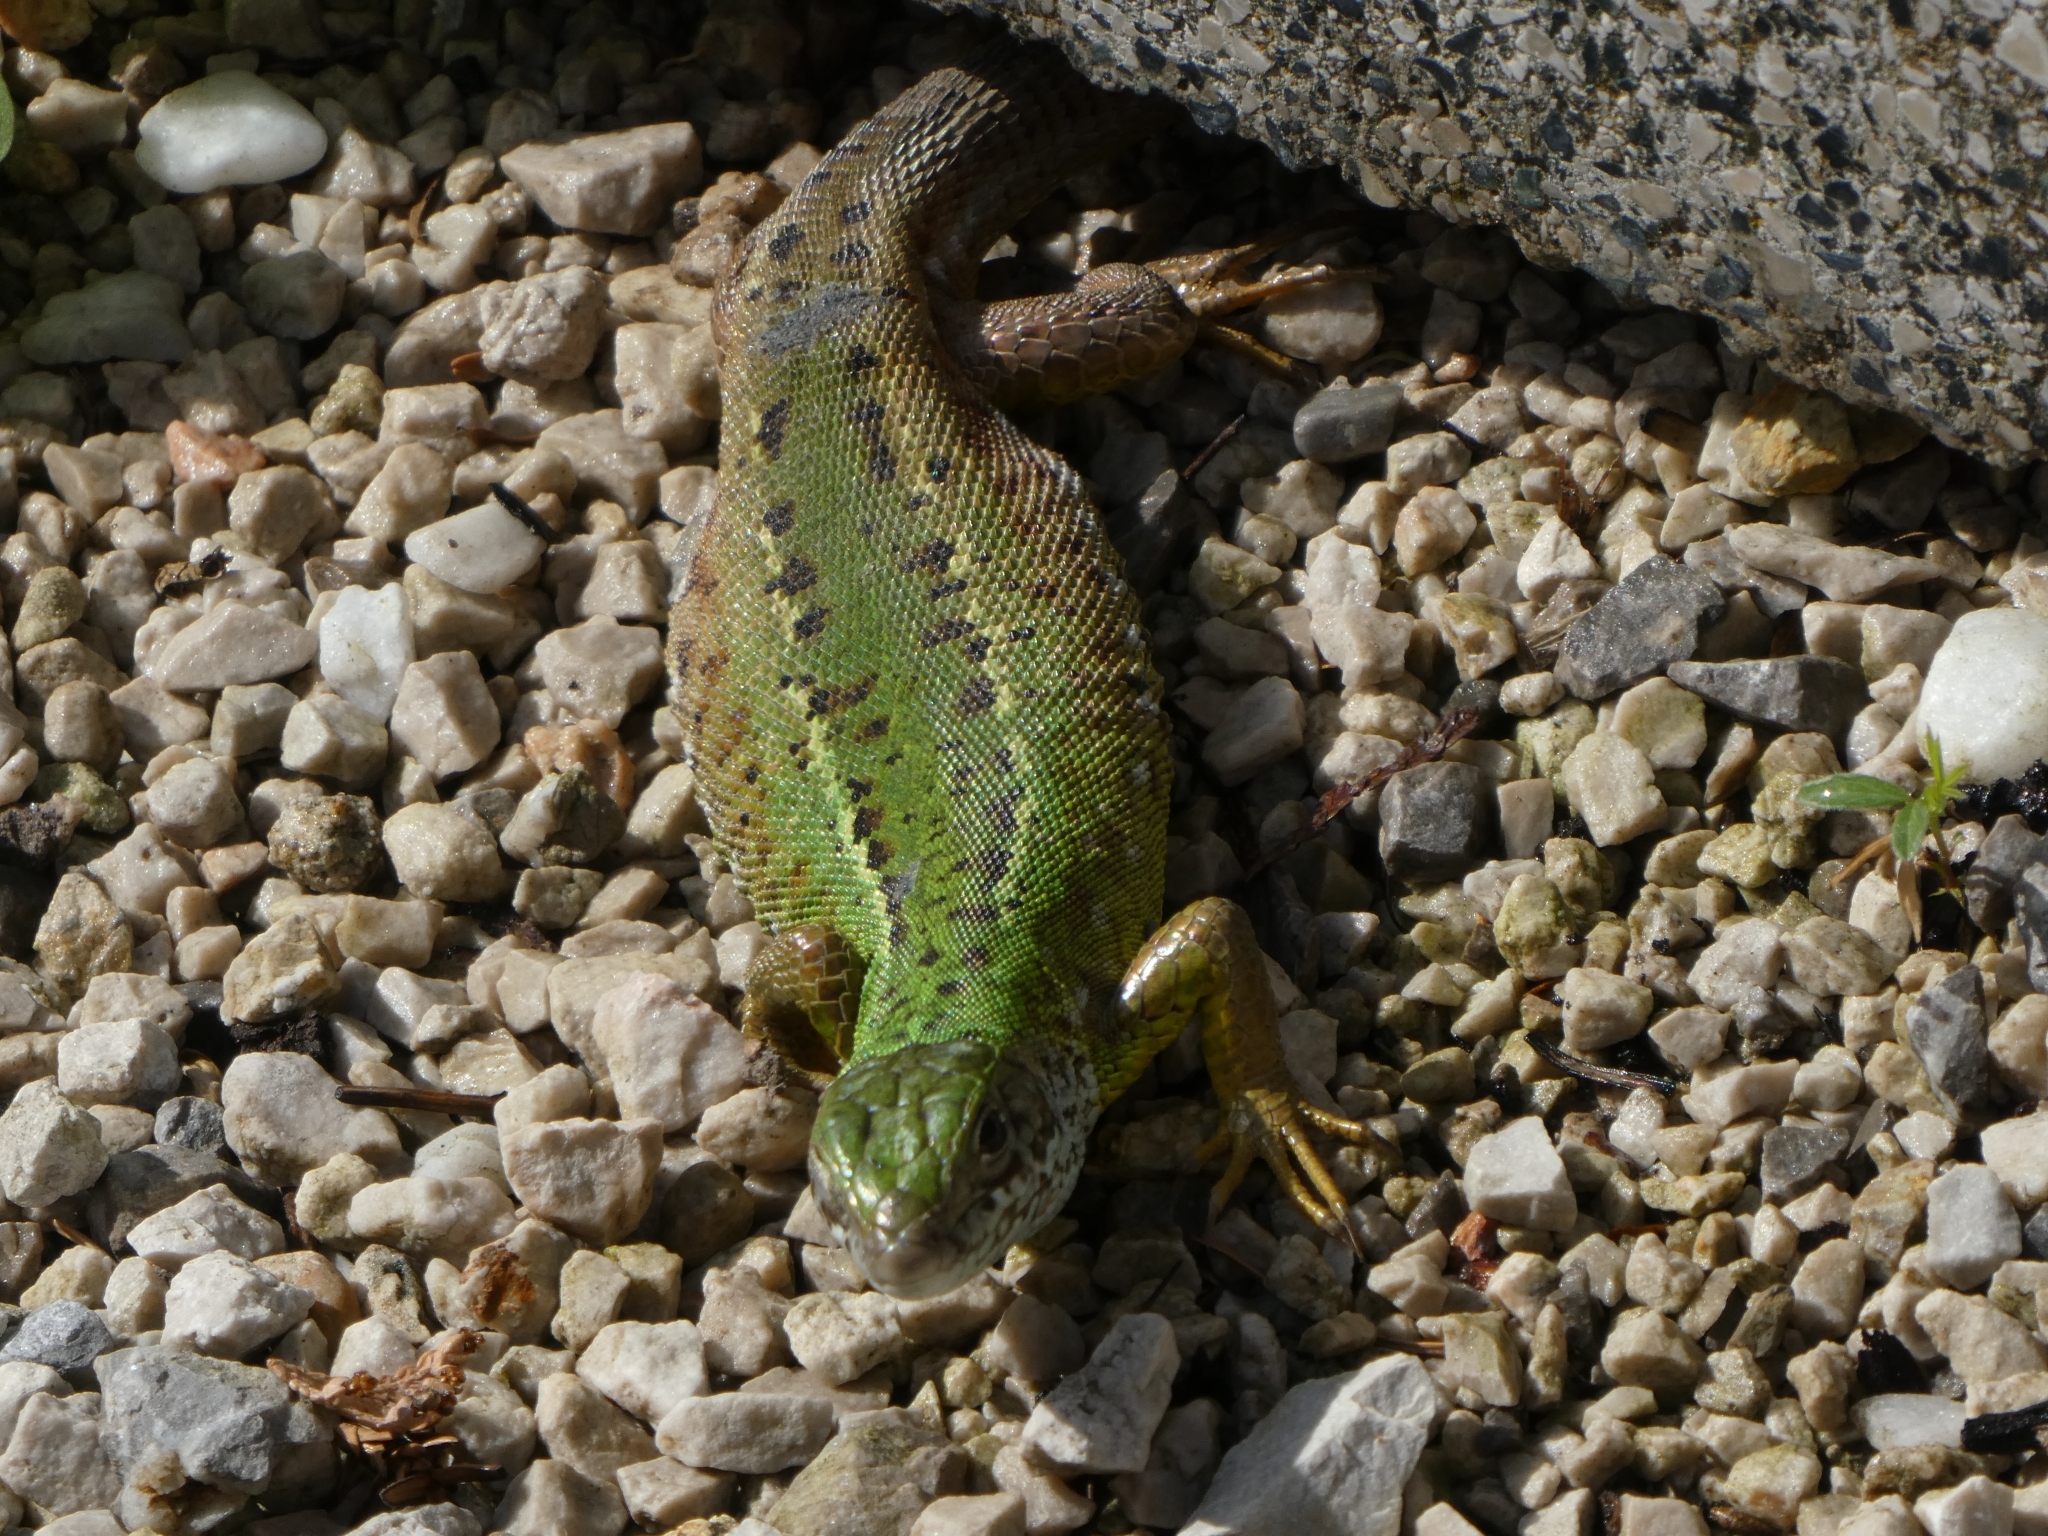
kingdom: Animalia
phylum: Chordata
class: Squamata
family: Lacertidae
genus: Lacerta
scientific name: Lacerta viridis
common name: European green lizard
